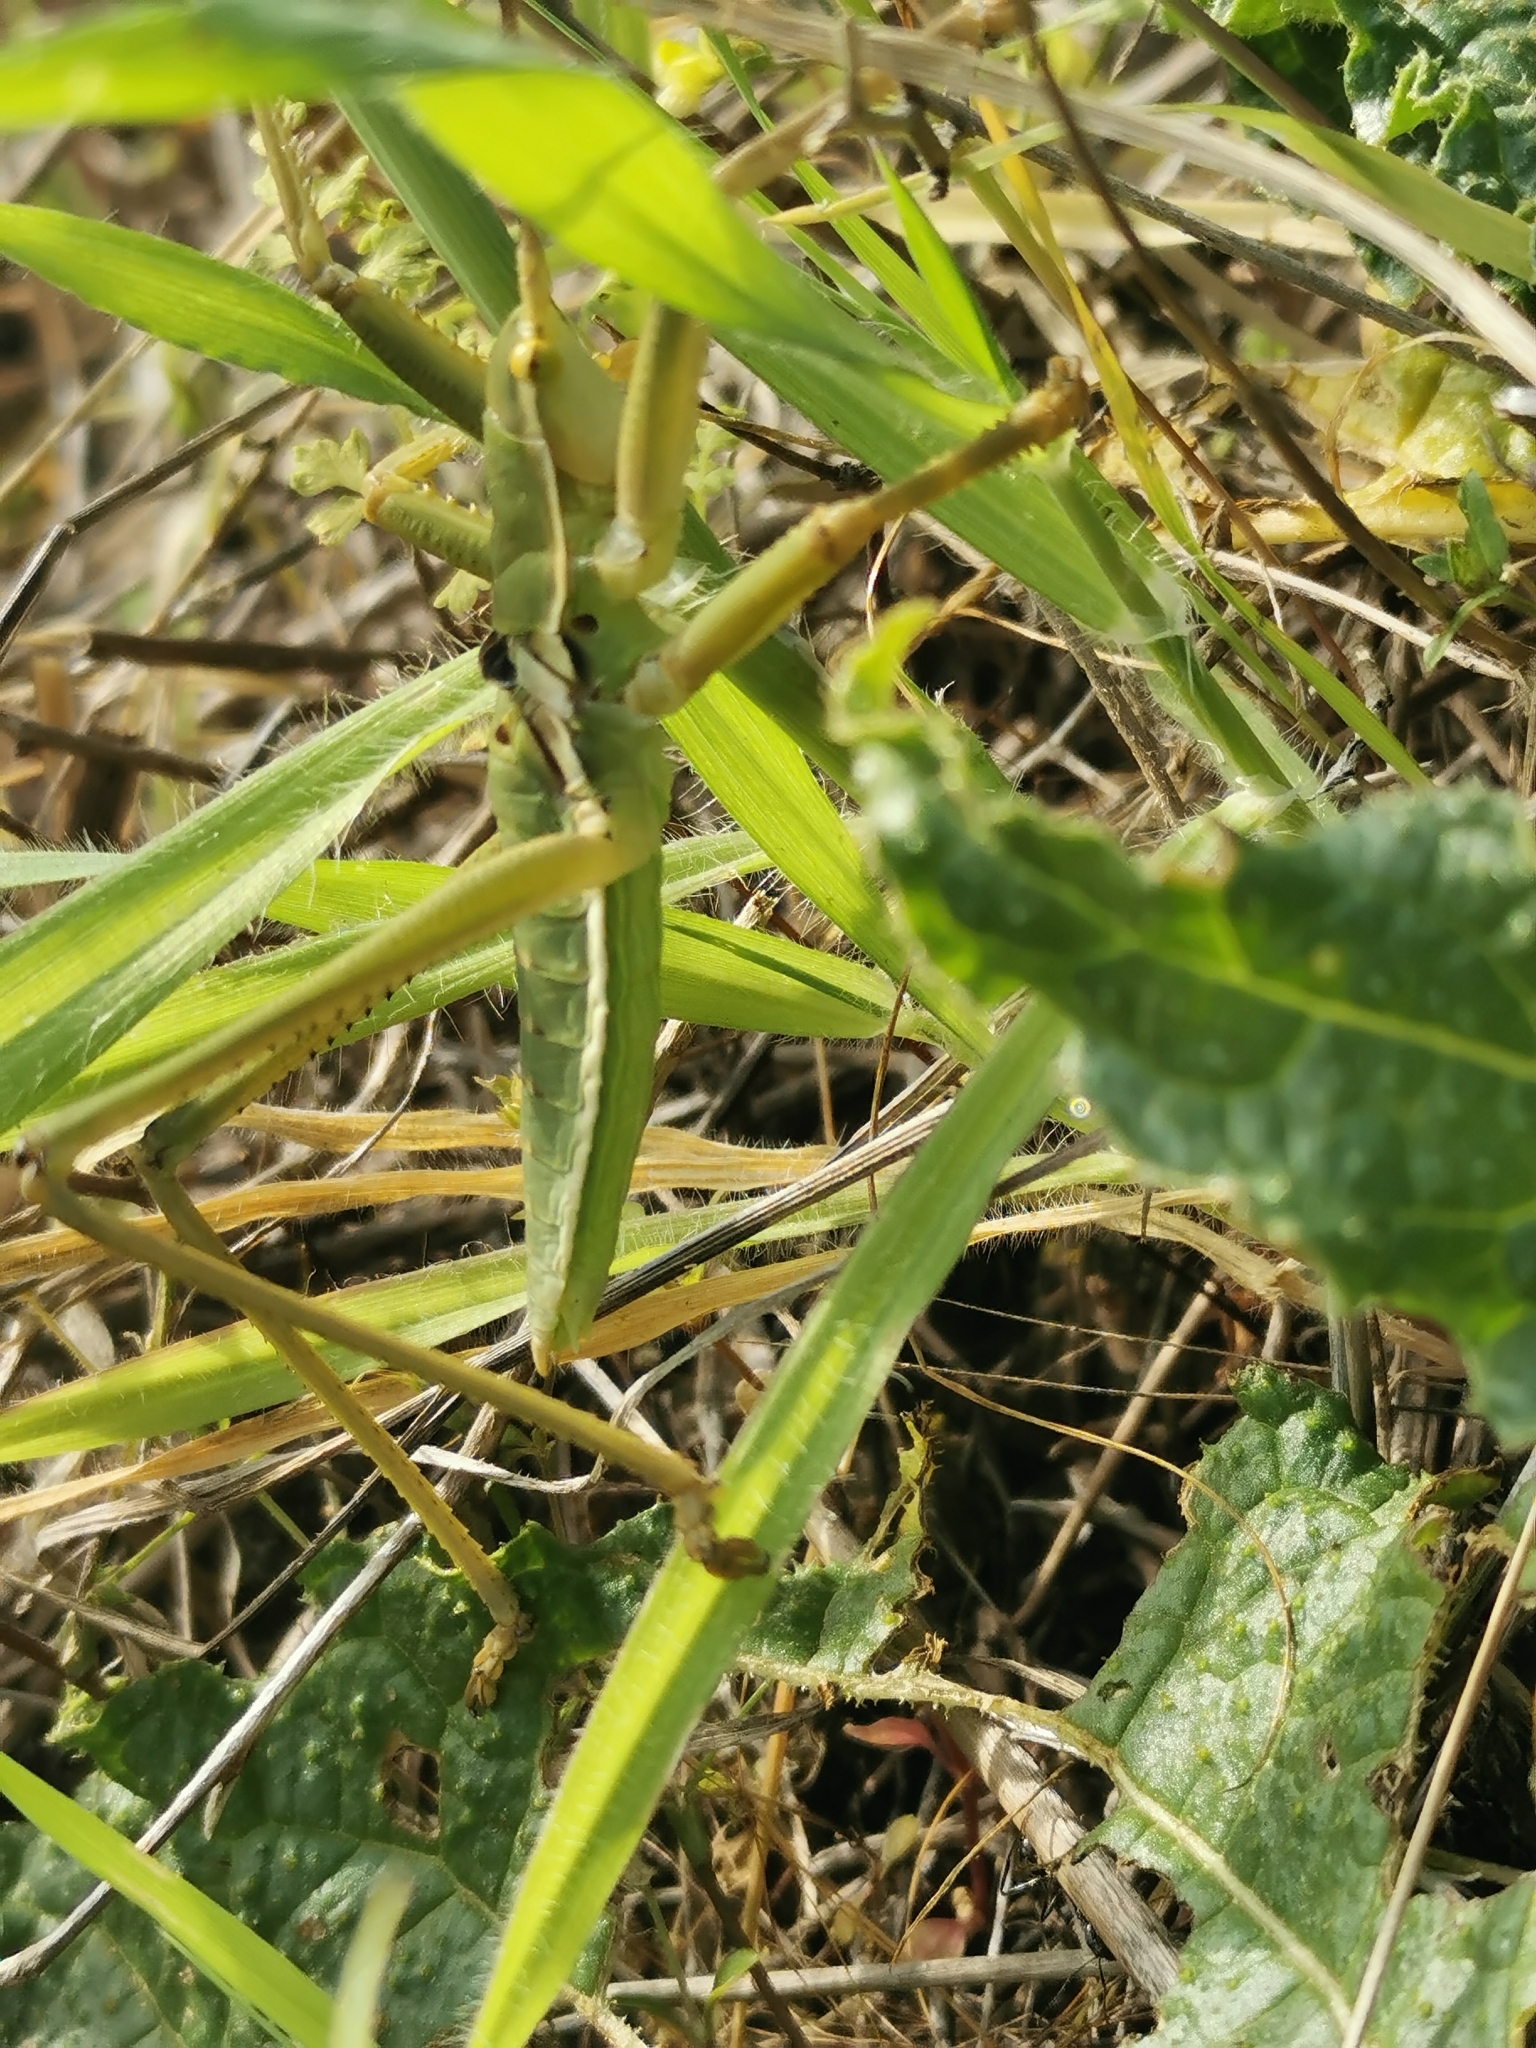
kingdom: Animalia
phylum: Arthropoda
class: Insecta
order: Orthoptera
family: Tettigoniidae
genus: Saga
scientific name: Saga ephippigera
